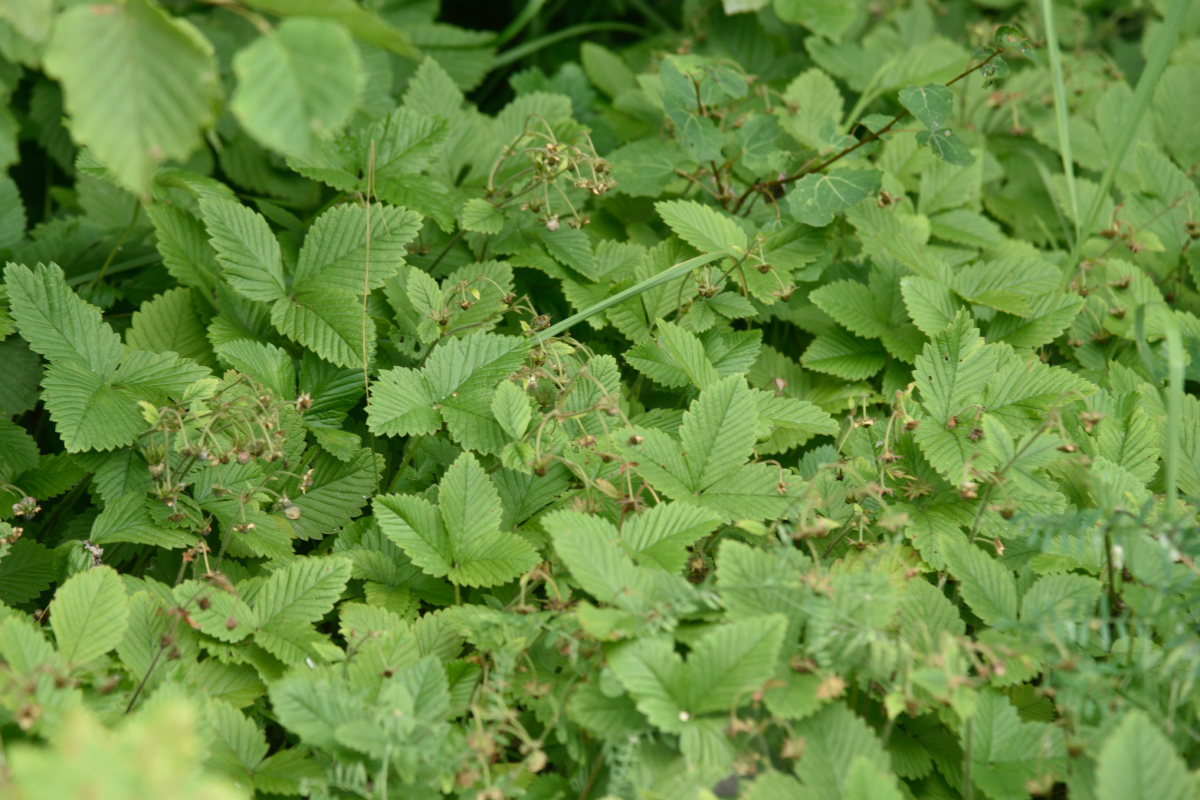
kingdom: Plantae
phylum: Tracheophyta
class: Magnoliopsida
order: Rosales
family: Rosaceae
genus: Fragaria
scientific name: Fragaria moschata
